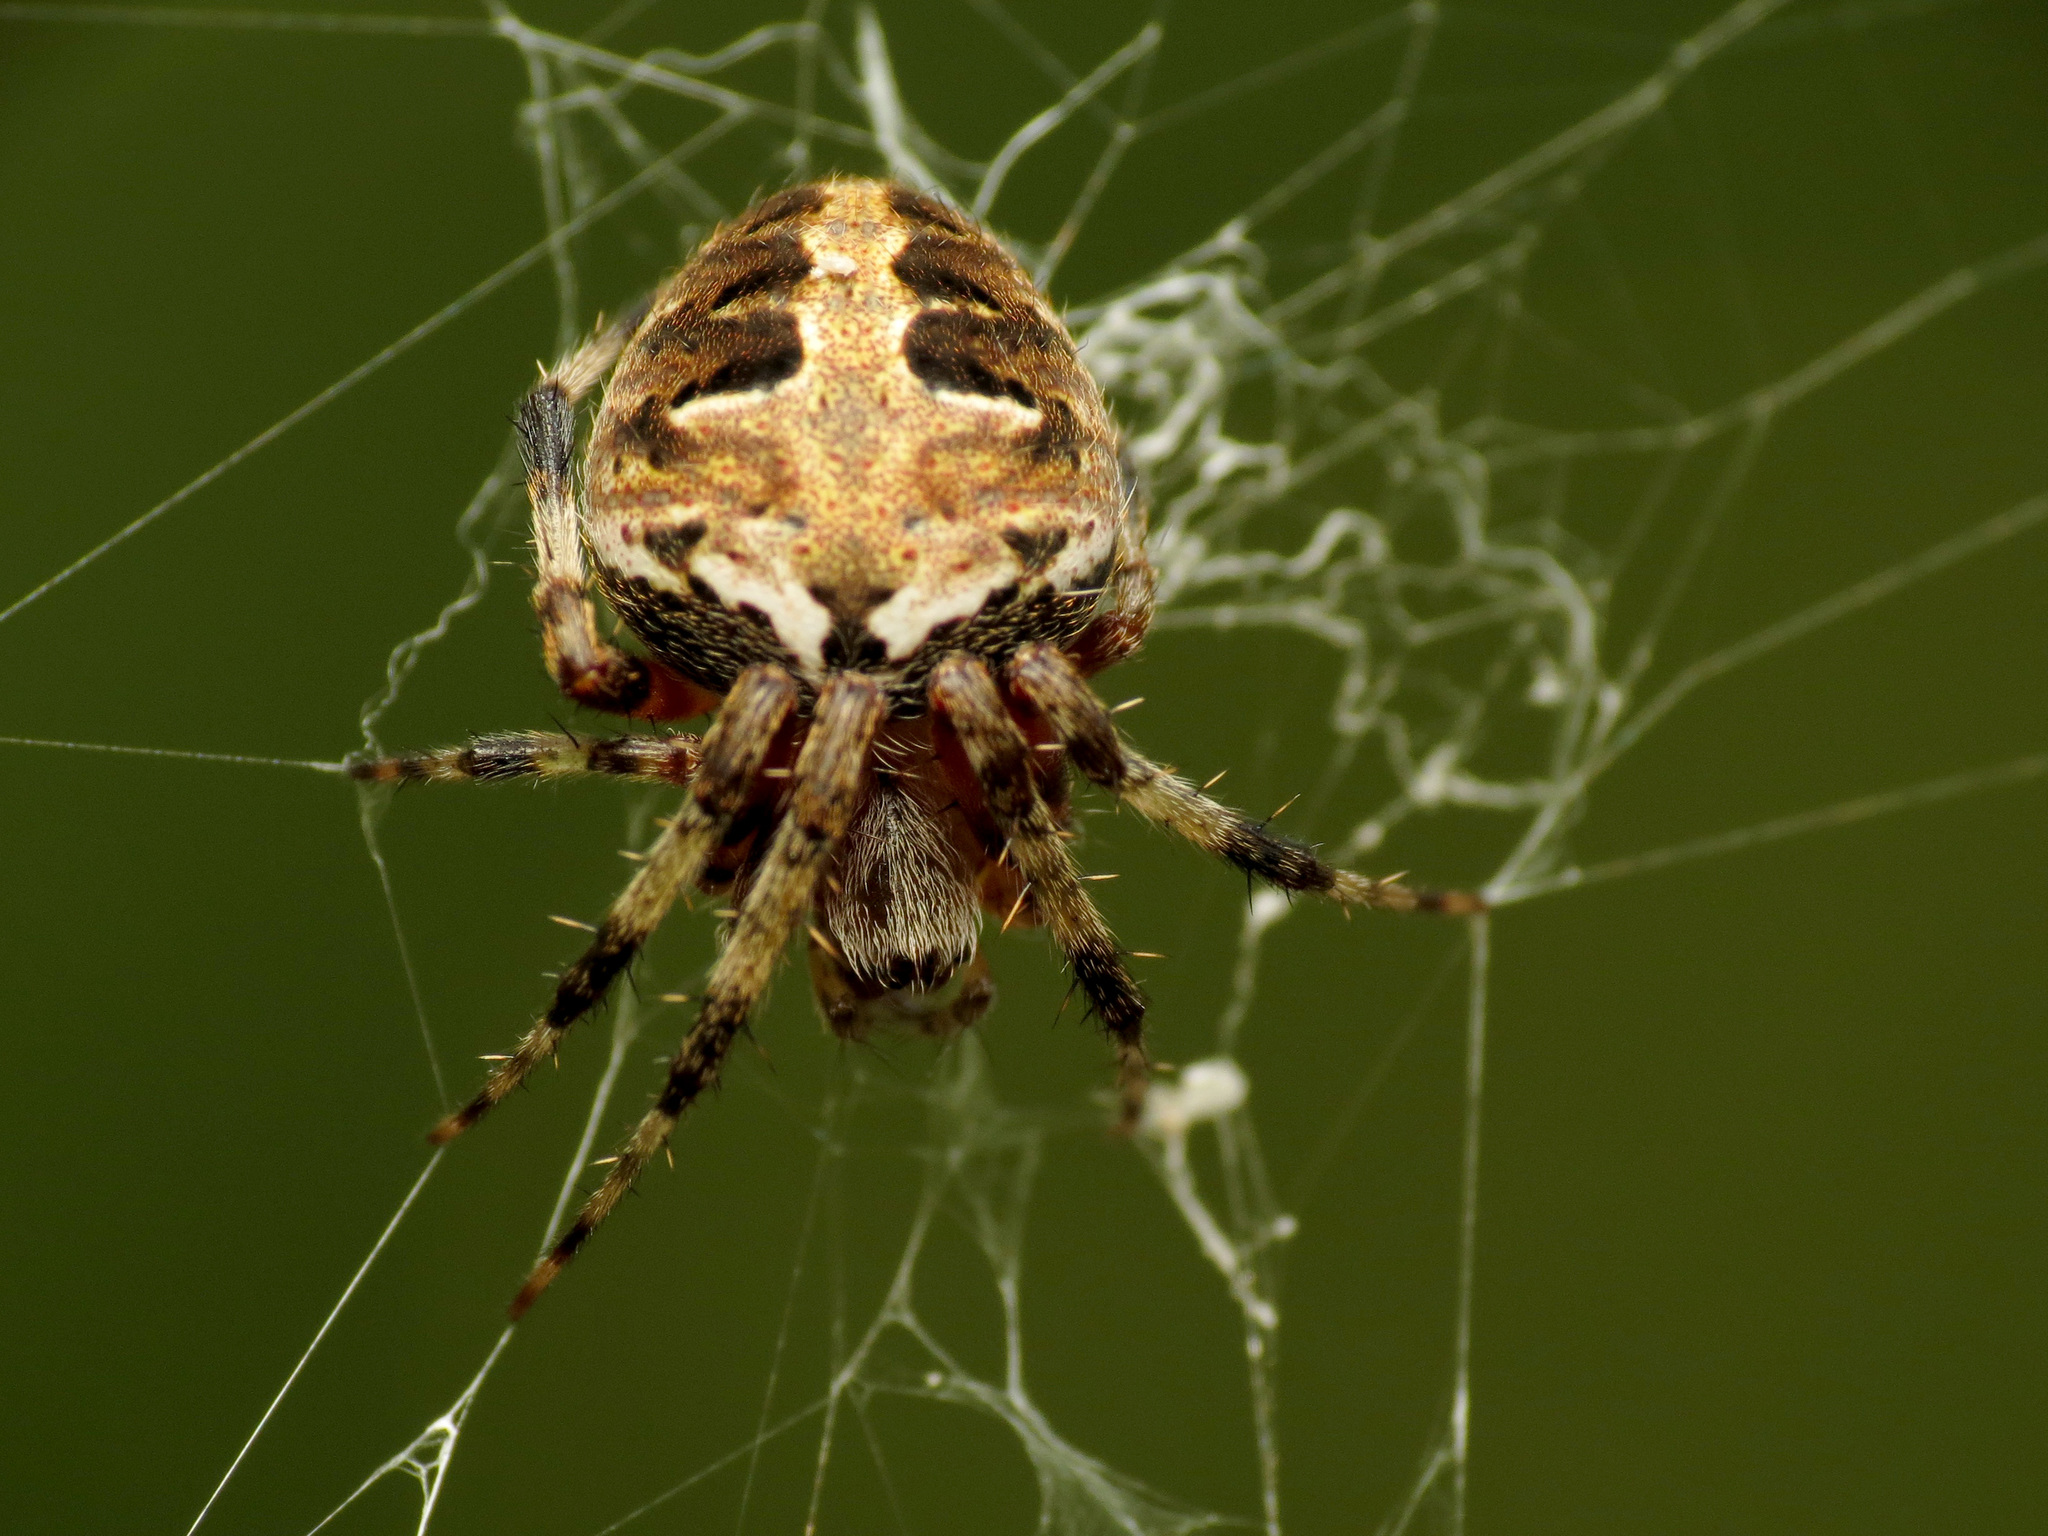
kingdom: Animalia
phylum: Arthropoda
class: Arachnida
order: Araneae
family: Araneidae
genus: Neoscona
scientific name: Neoscona domiciliorum
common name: Red-femured spotted orbweaver
